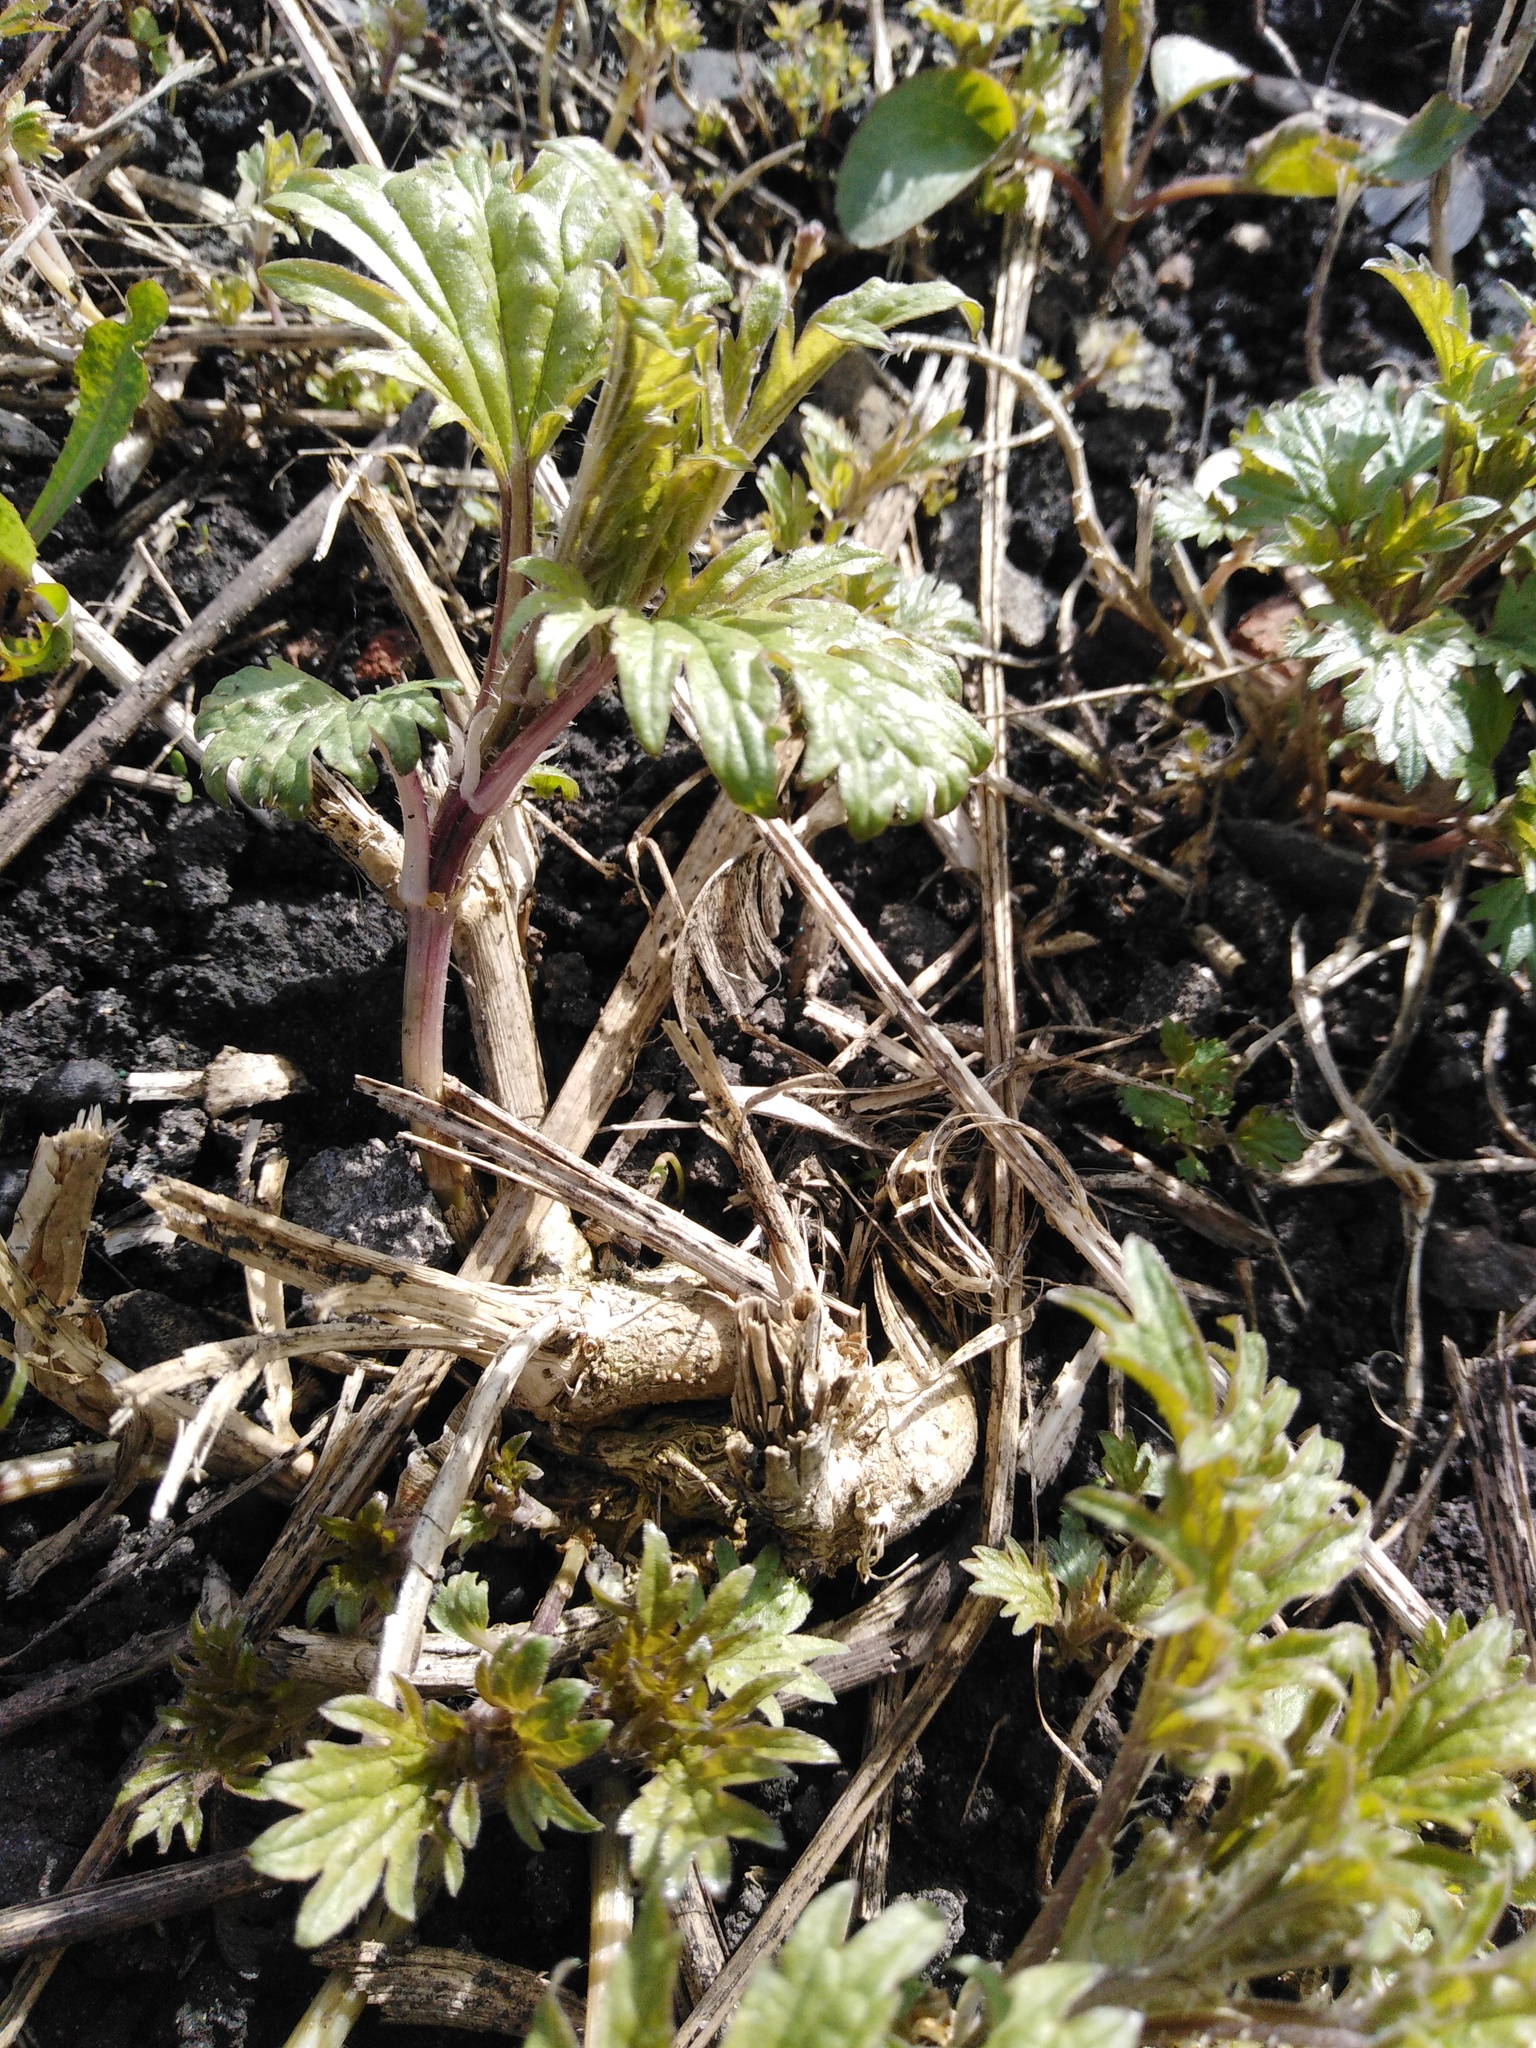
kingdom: Plantae
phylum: Tracheophyta
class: Magnoliopsida
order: Rosales
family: Urticaceae
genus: Urtica
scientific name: Urtica cannabina
